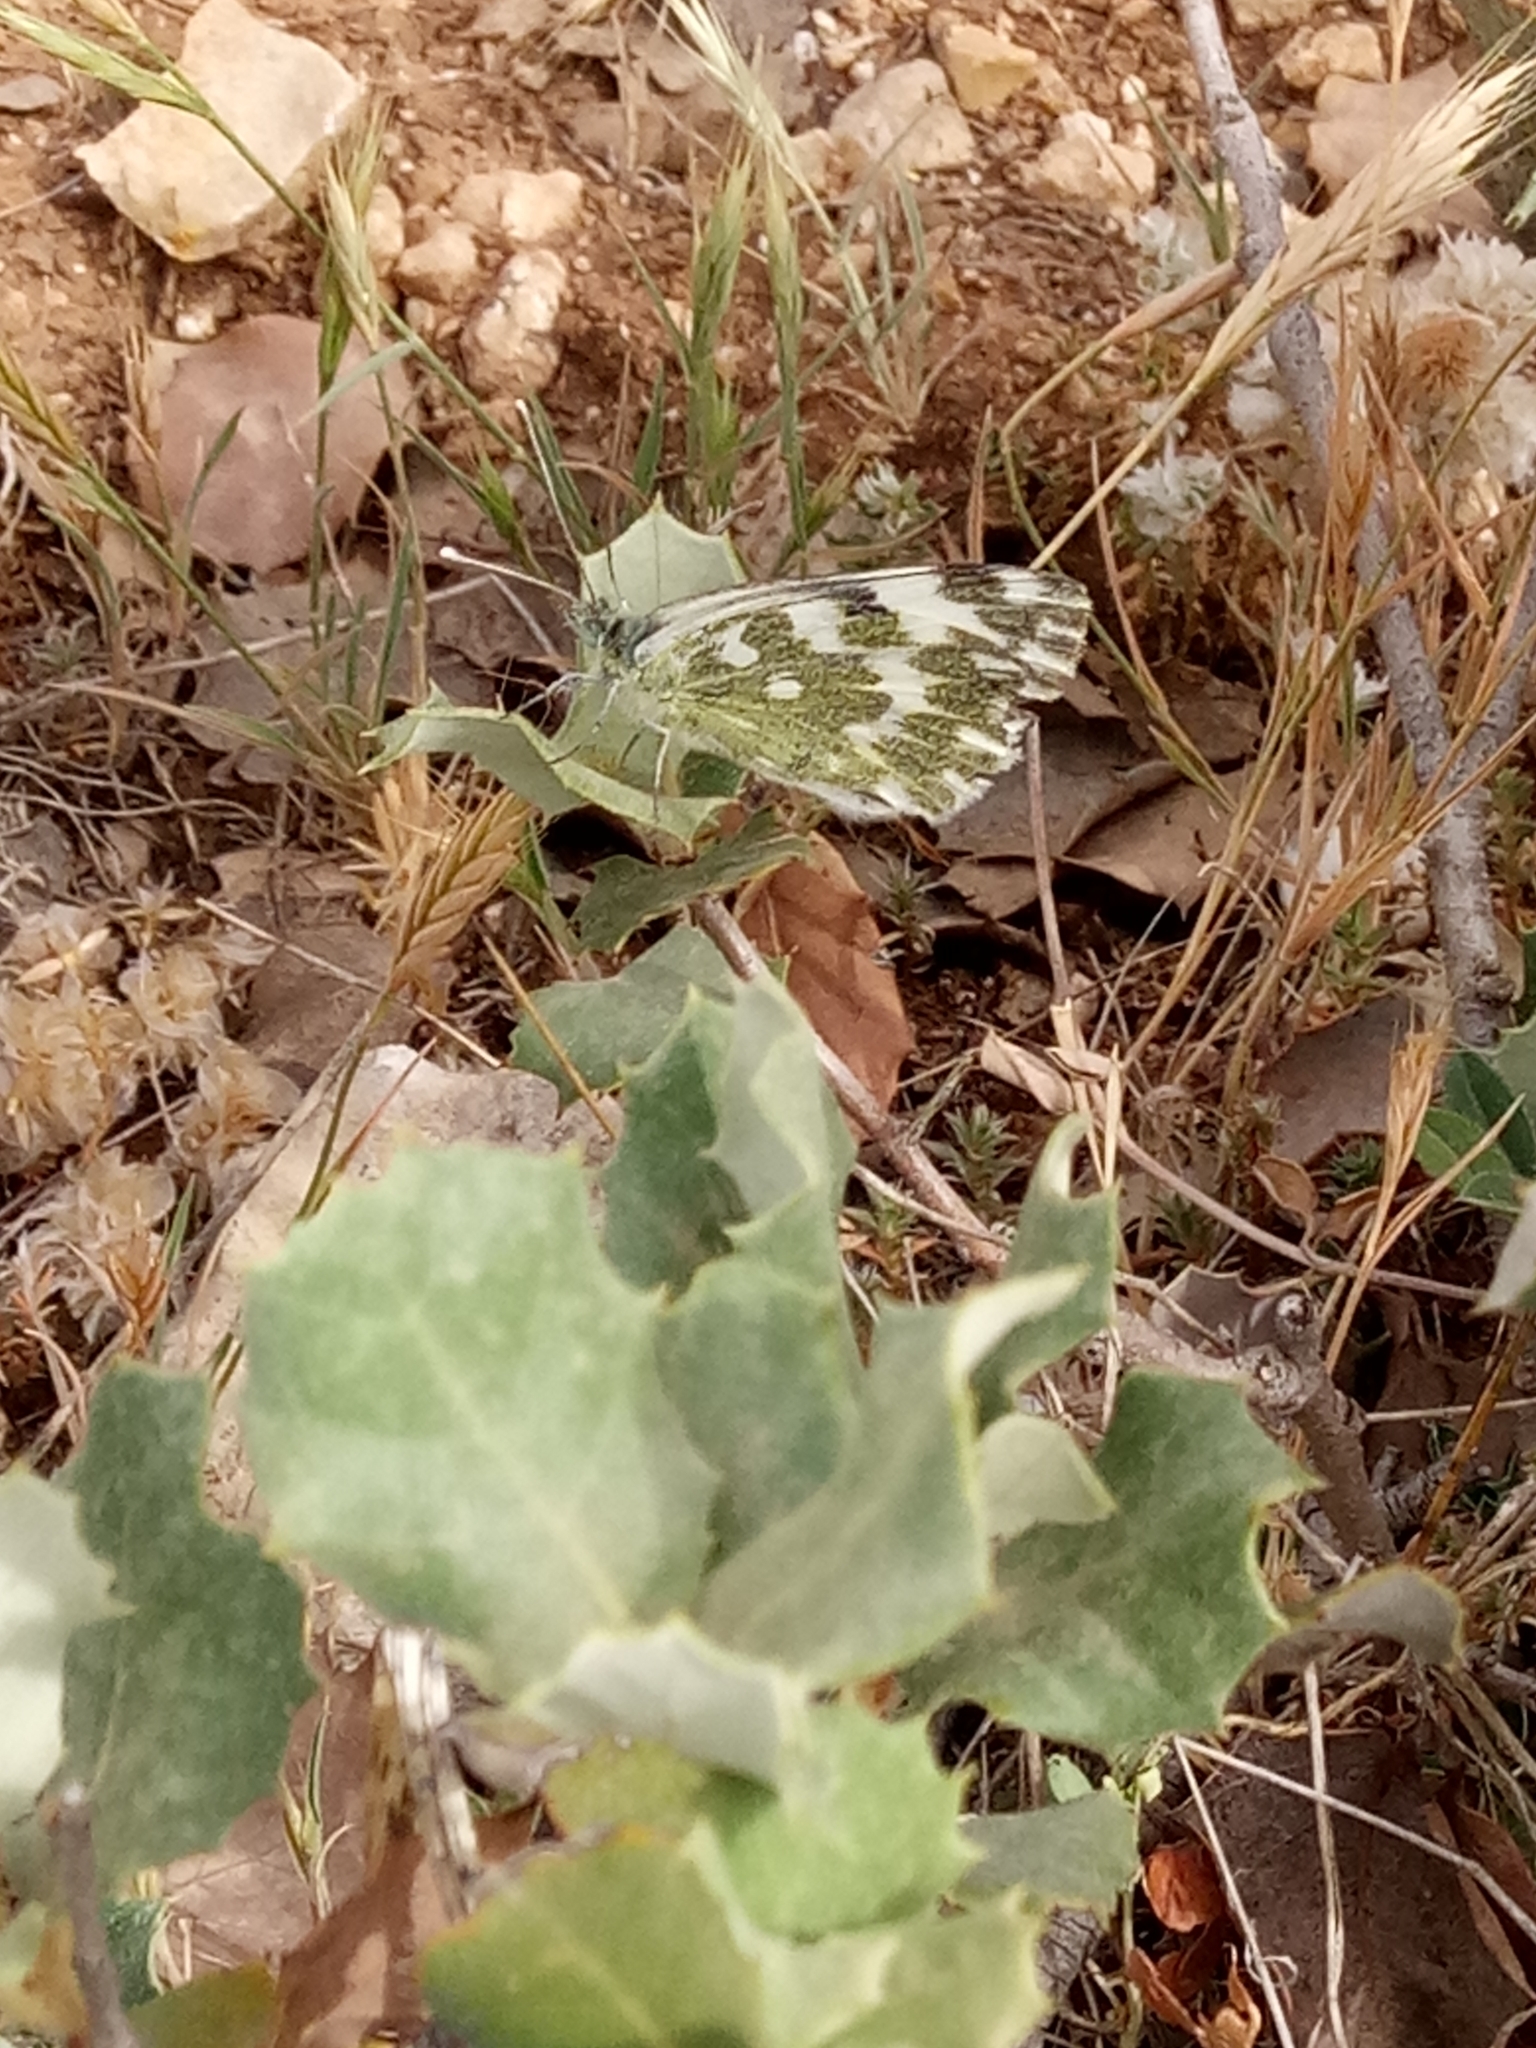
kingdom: Animalia
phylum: Arthropoda
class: Insecta
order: Lepidoptera
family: Pieridae
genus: Pontia
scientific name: Pontia daplidice
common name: Bath white
